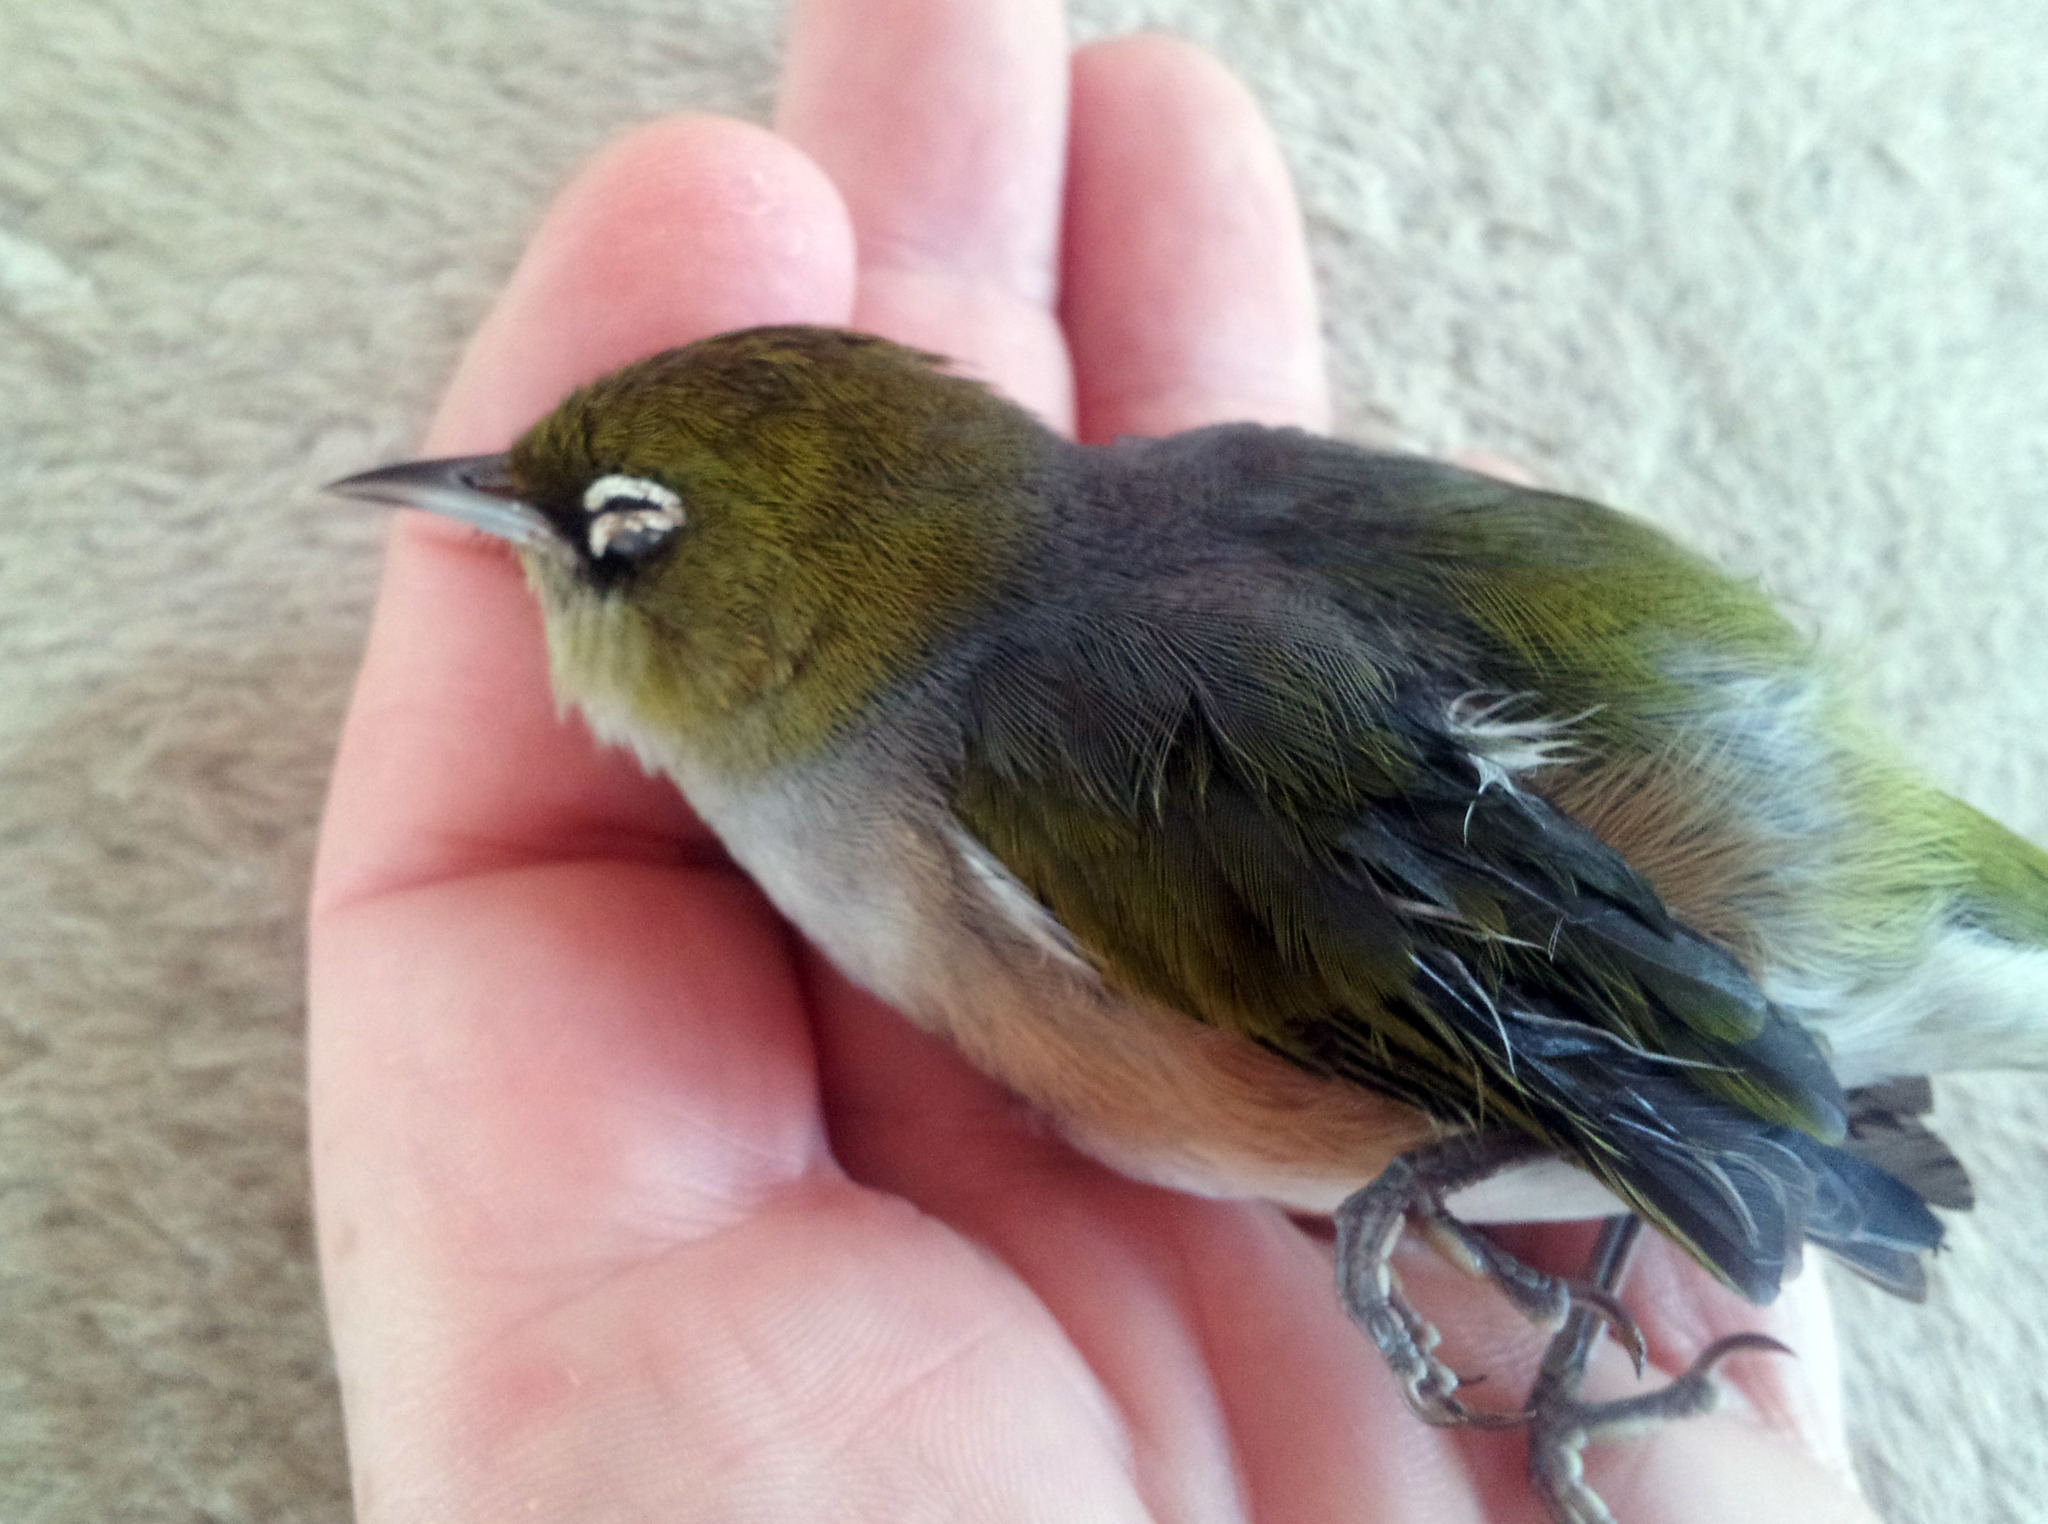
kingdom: Animalia
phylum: Chordata
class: Aves
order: Passeriformes
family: Zosteropidae
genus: Zosterops
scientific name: Zosterops lateralis
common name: Silvereye
